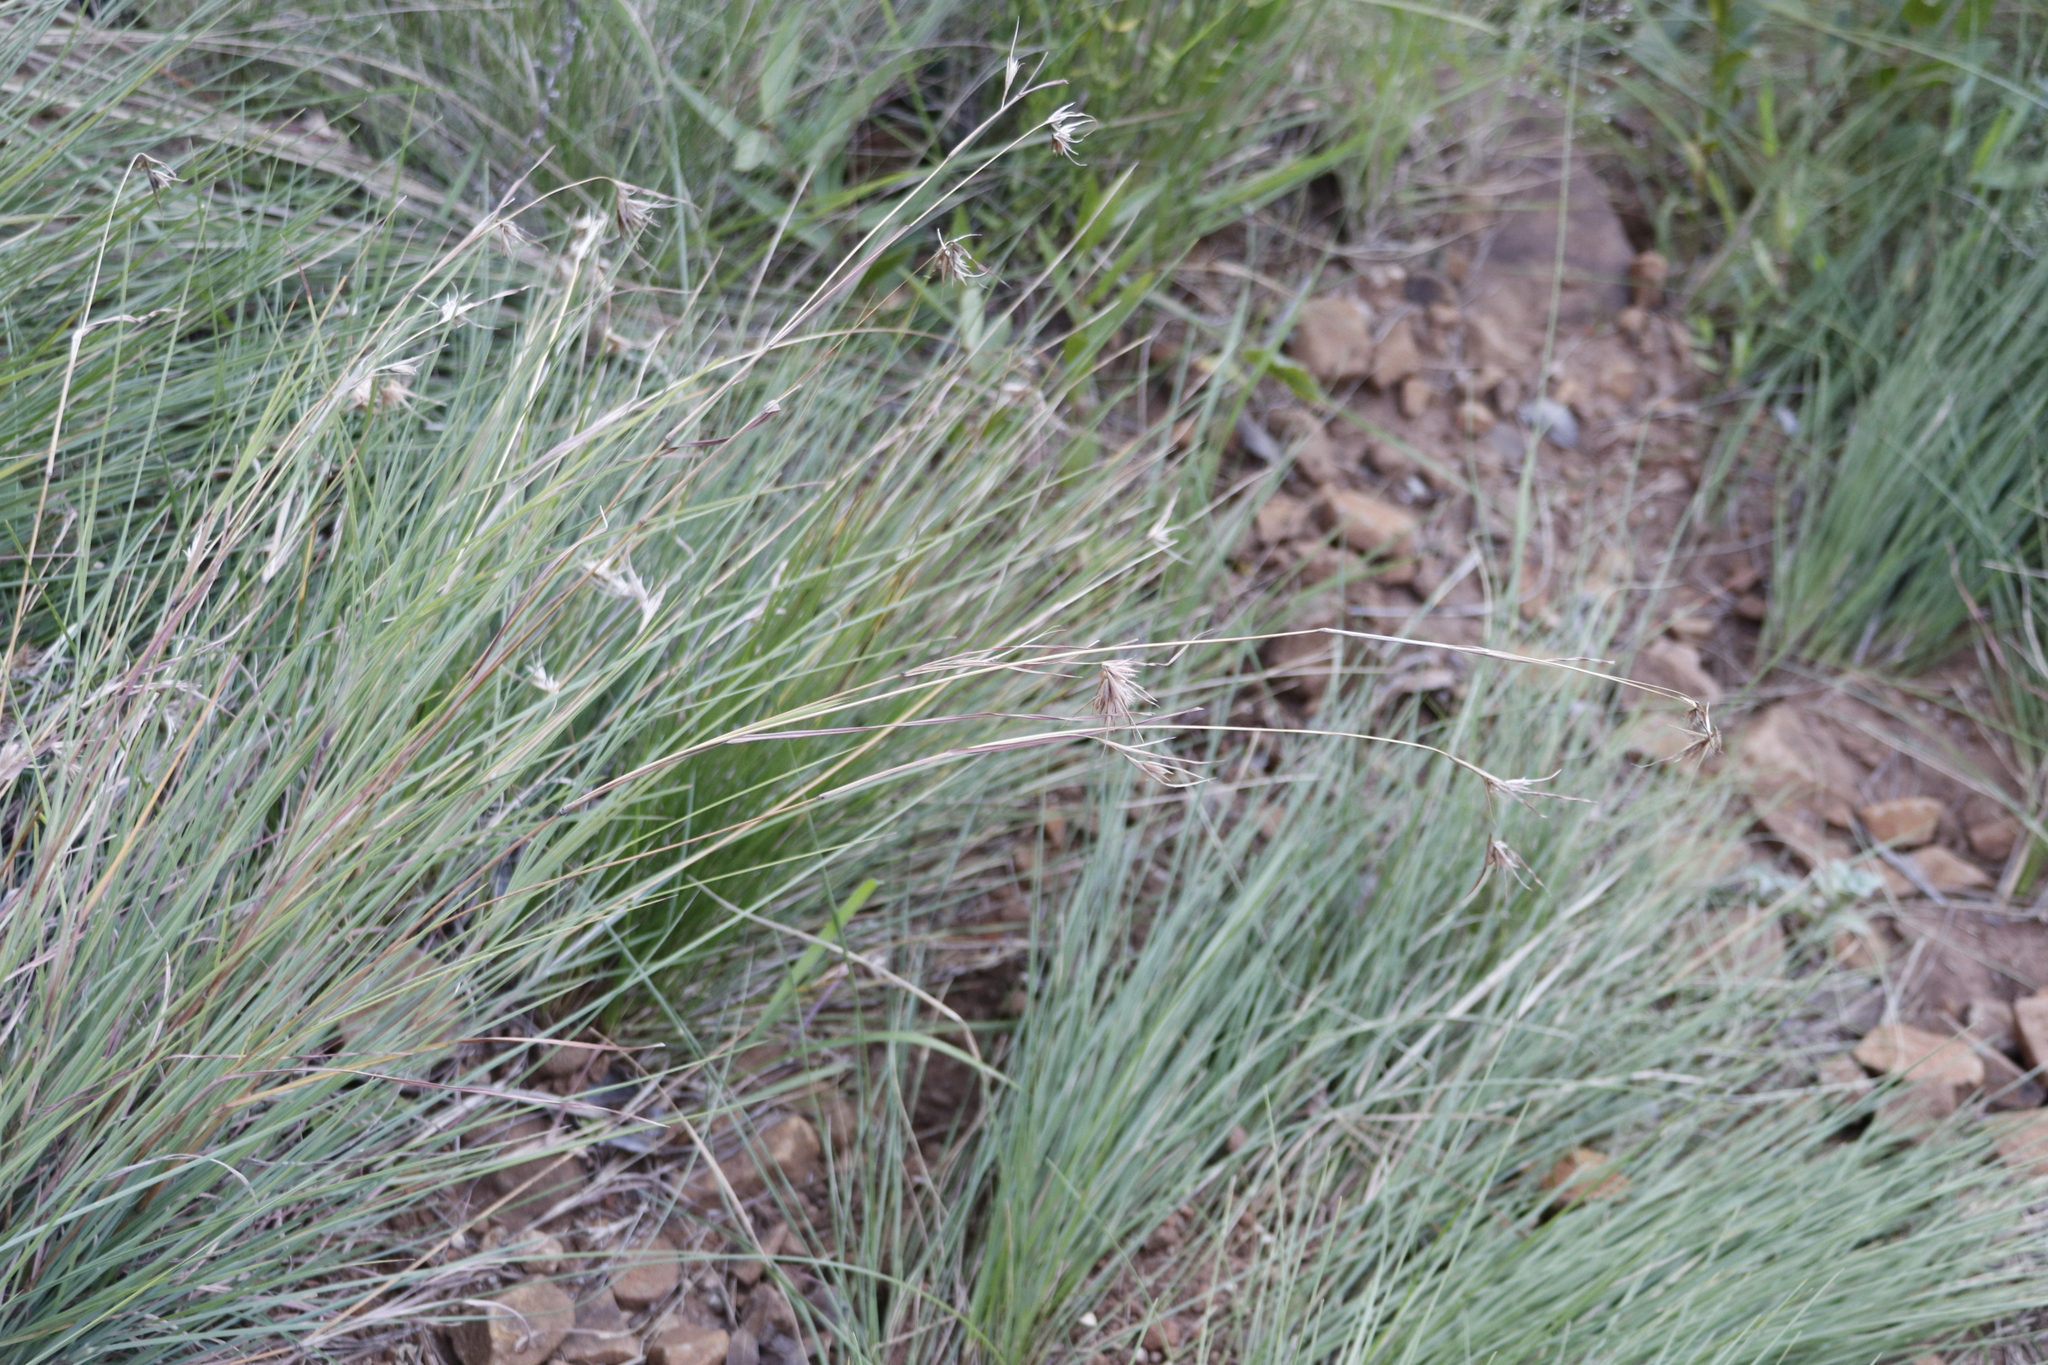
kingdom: Plantae
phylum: Tracheophyta
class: Liliopsida
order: Poales
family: Poaceae
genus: Themeda
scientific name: Themeda triandra
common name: Kangaroo grass
